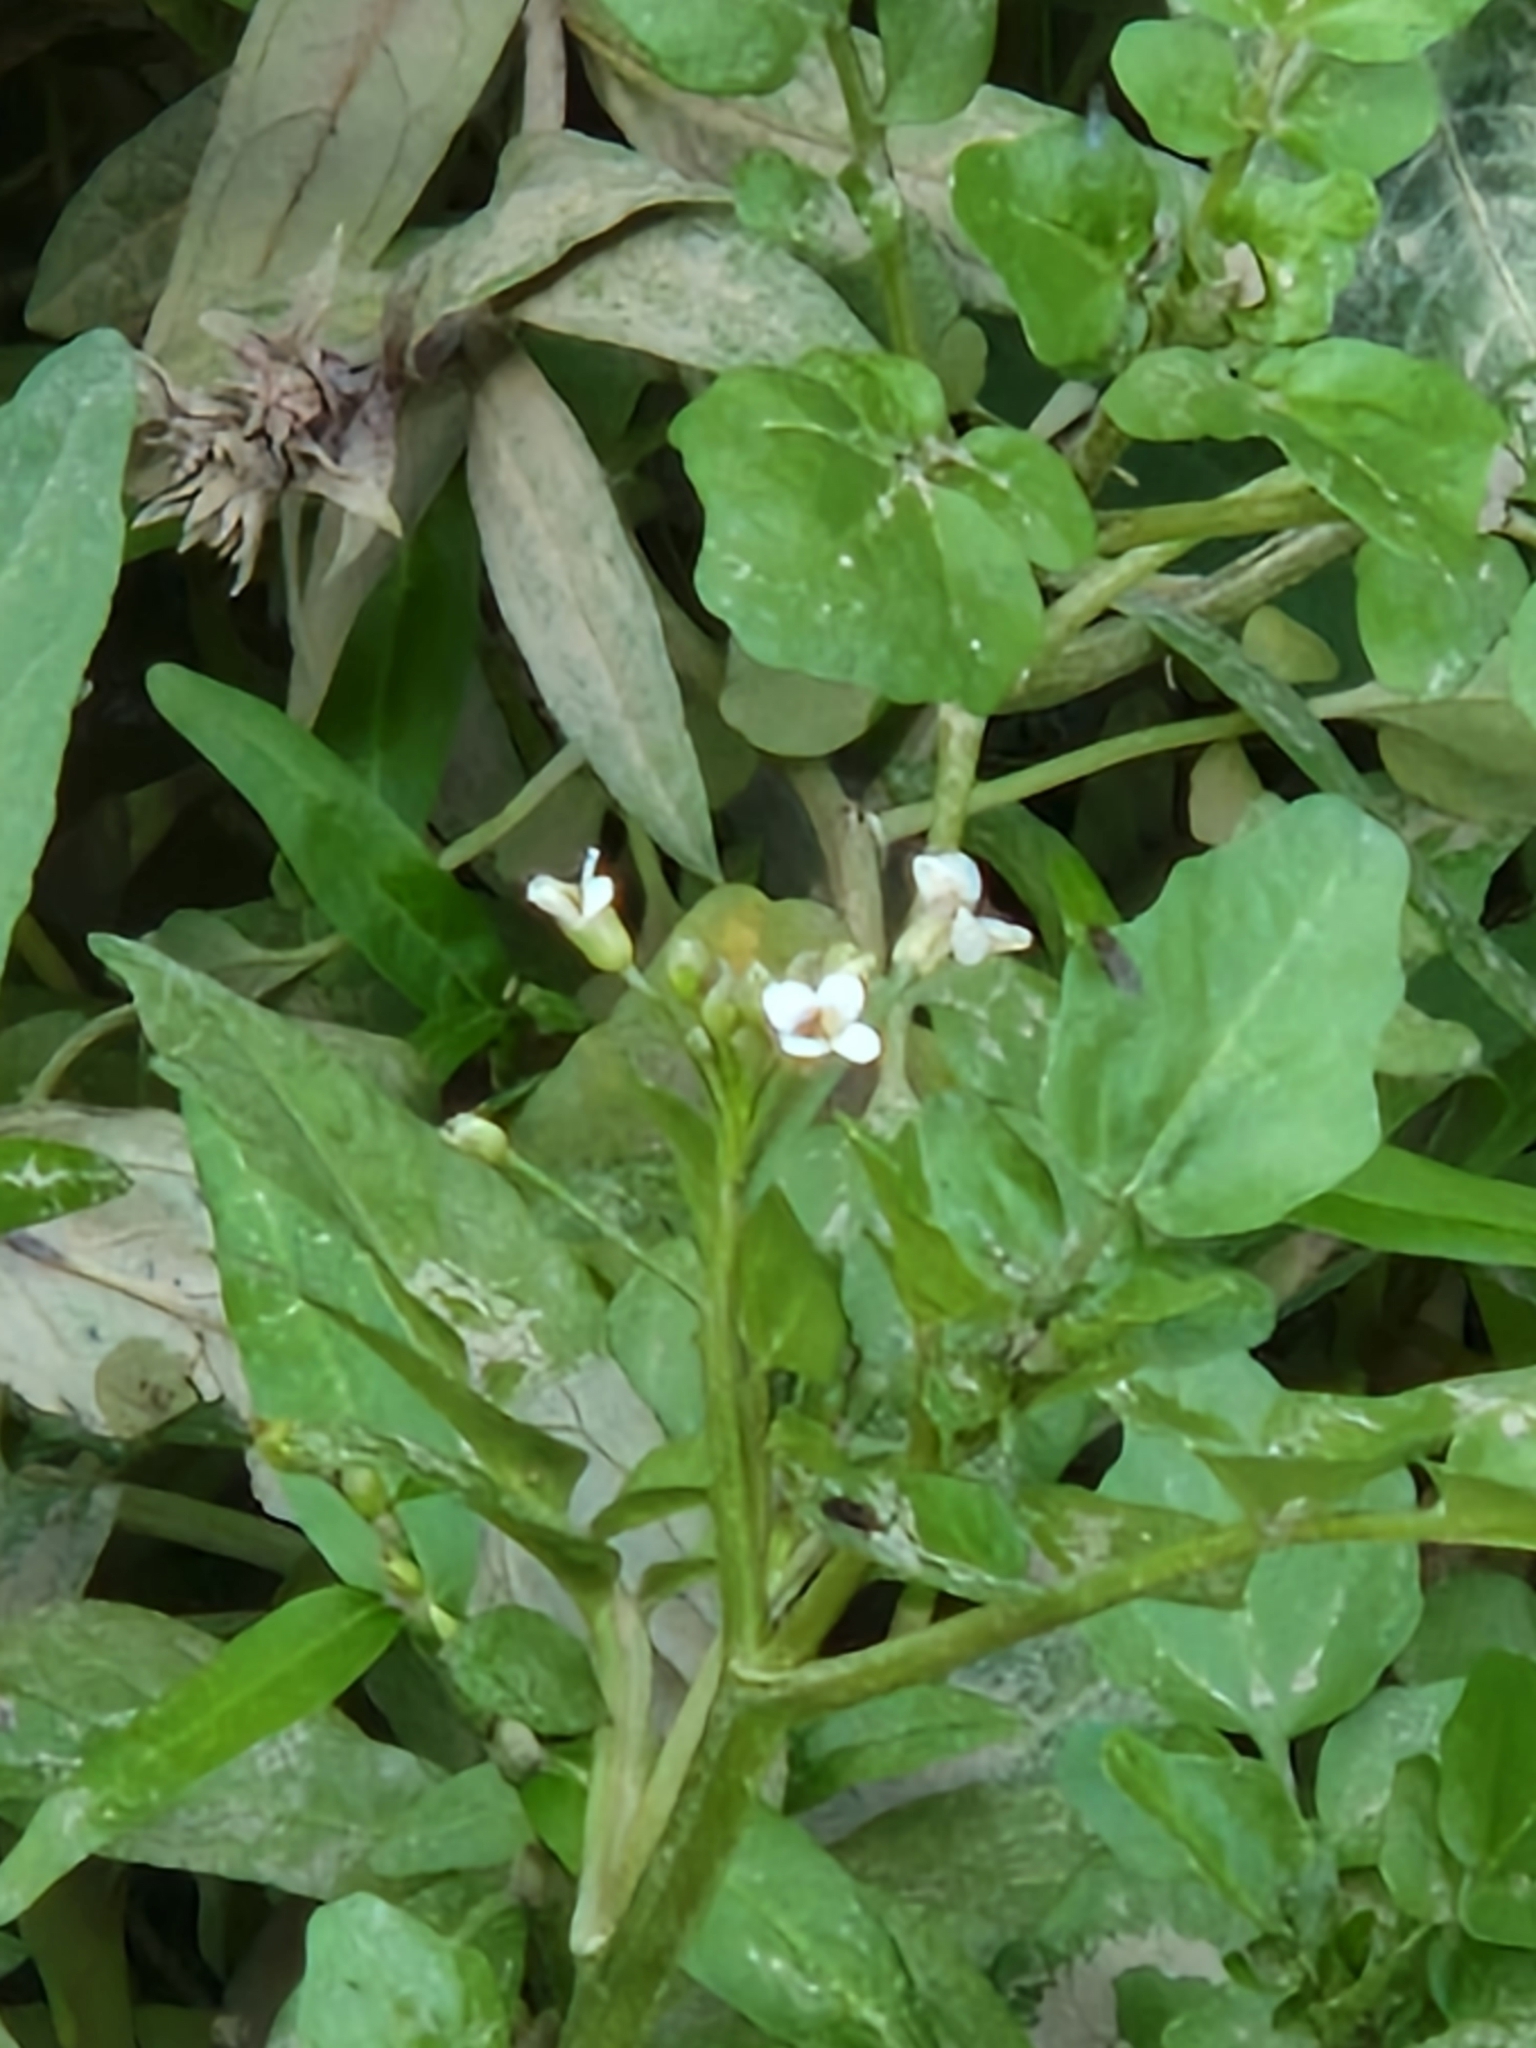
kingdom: Plantae
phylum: Tracheophyta
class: Magnoliopsida
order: Brassicales
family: Brassicaceae
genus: Nasturtium
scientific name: Nasturtium officinale
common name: Watercress
